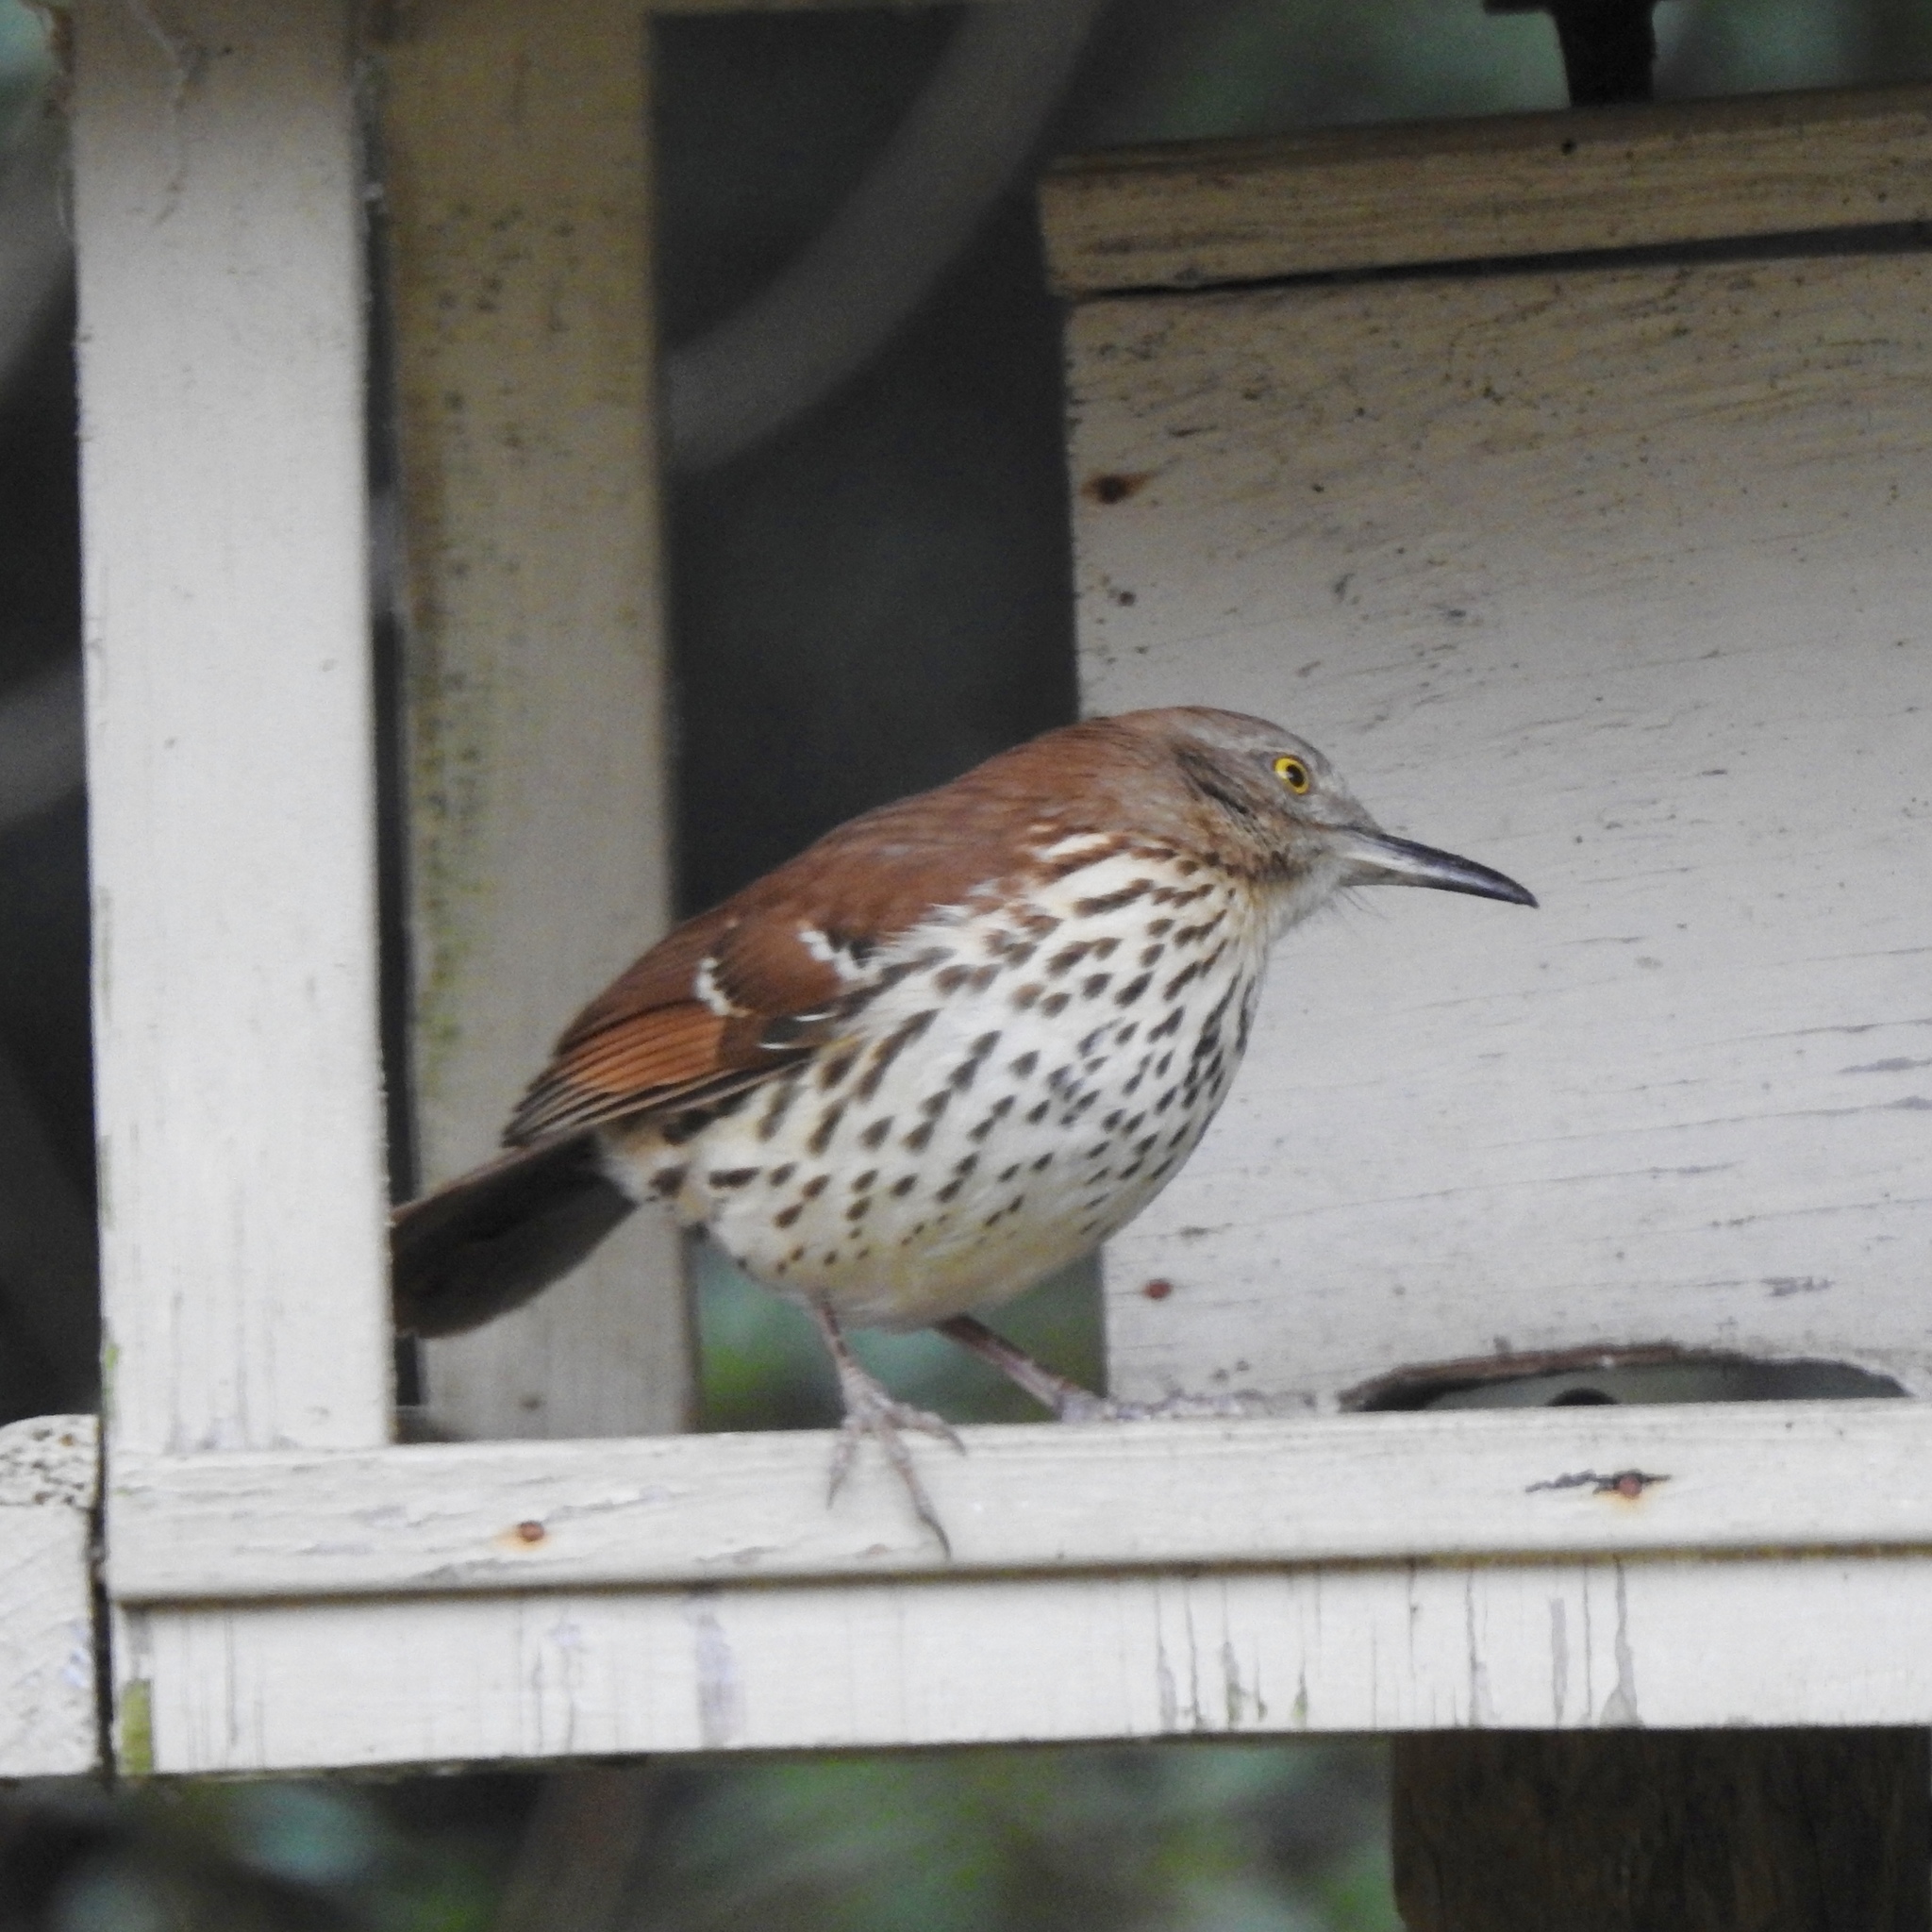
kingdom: Animalia
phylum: Chordata
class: Aves
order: Passeriformes
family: Mimidae
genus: Toxostoma
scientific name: Toxostoma rufum
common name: Brown thrasher
